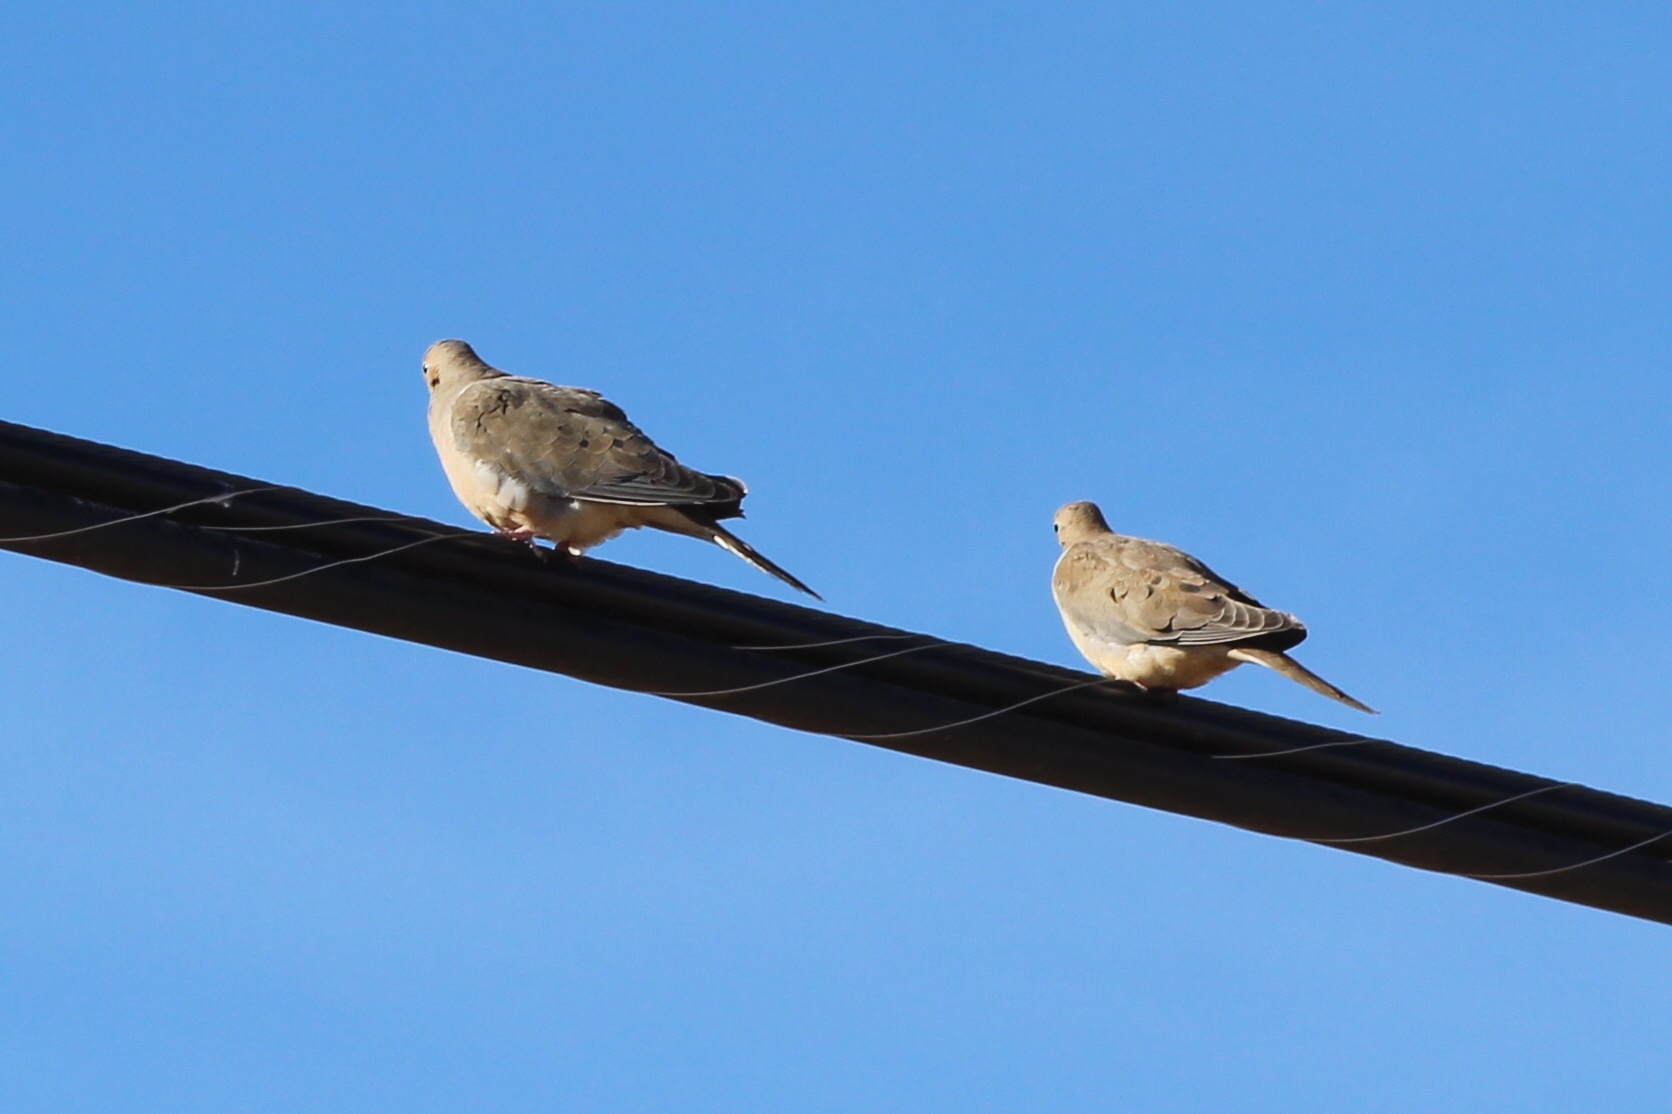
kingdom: Animalia
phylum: Chordata
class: Aves
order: Columbiformes
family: Columbidae
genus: Zenaida
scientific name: Zenaida macroura
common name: Mourning dove
